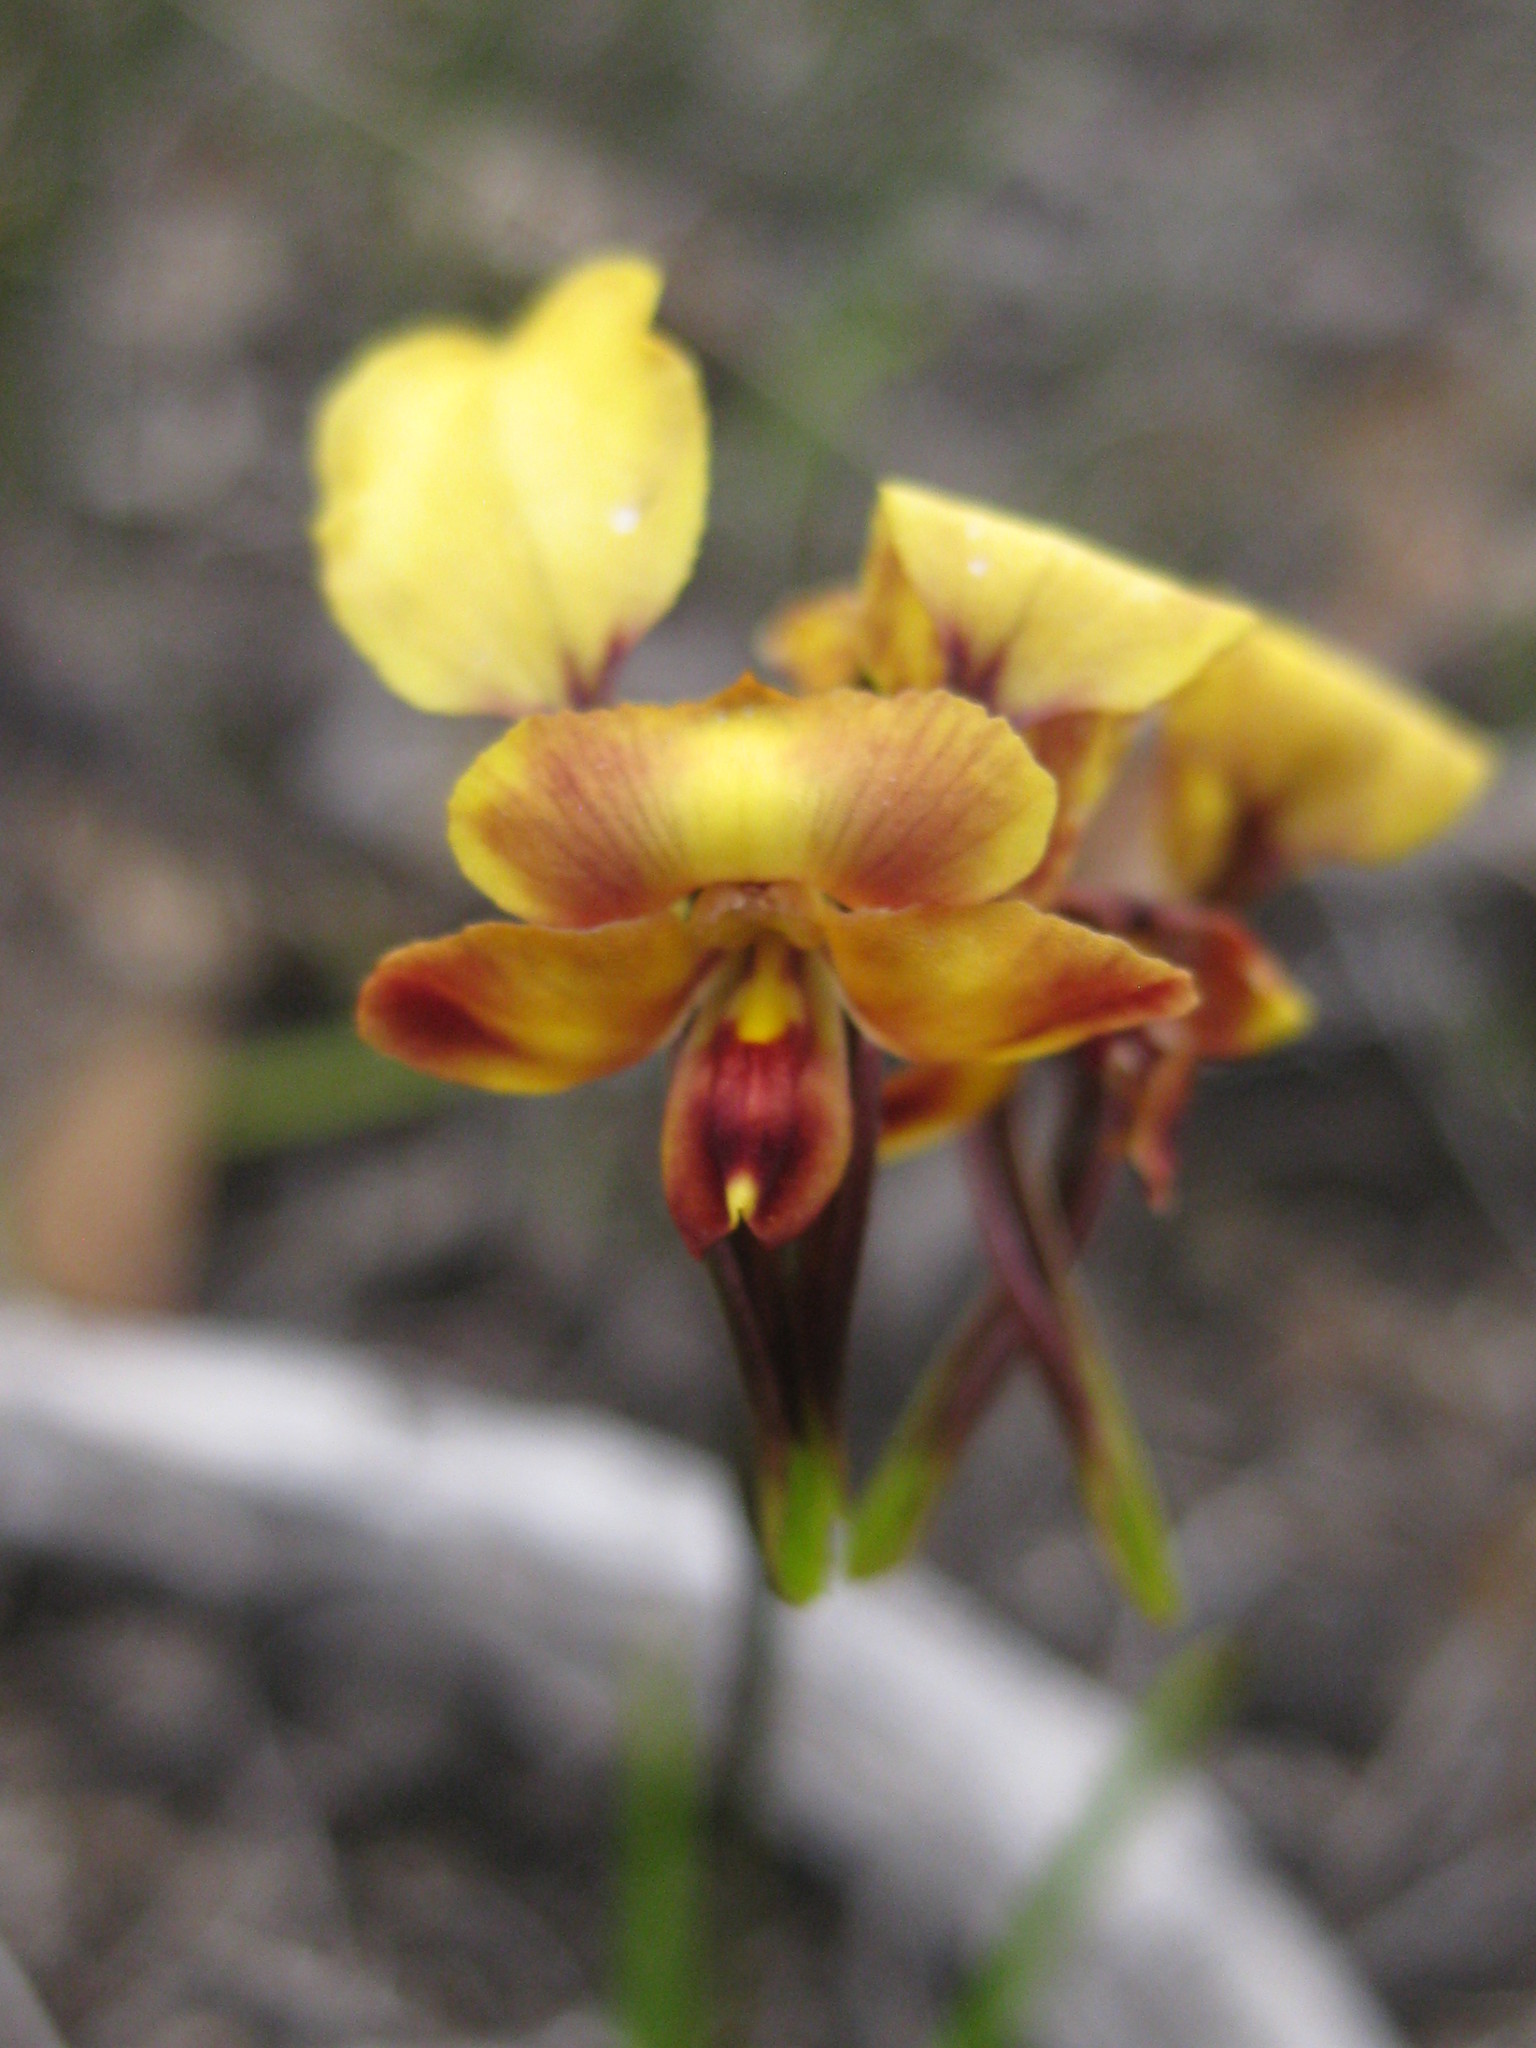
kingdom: Plantae
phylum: Tracheophyta
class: Liliopsida
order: Asparagales
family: Orchidaceae
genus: Diuris
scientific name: Diuris brachyscapa
